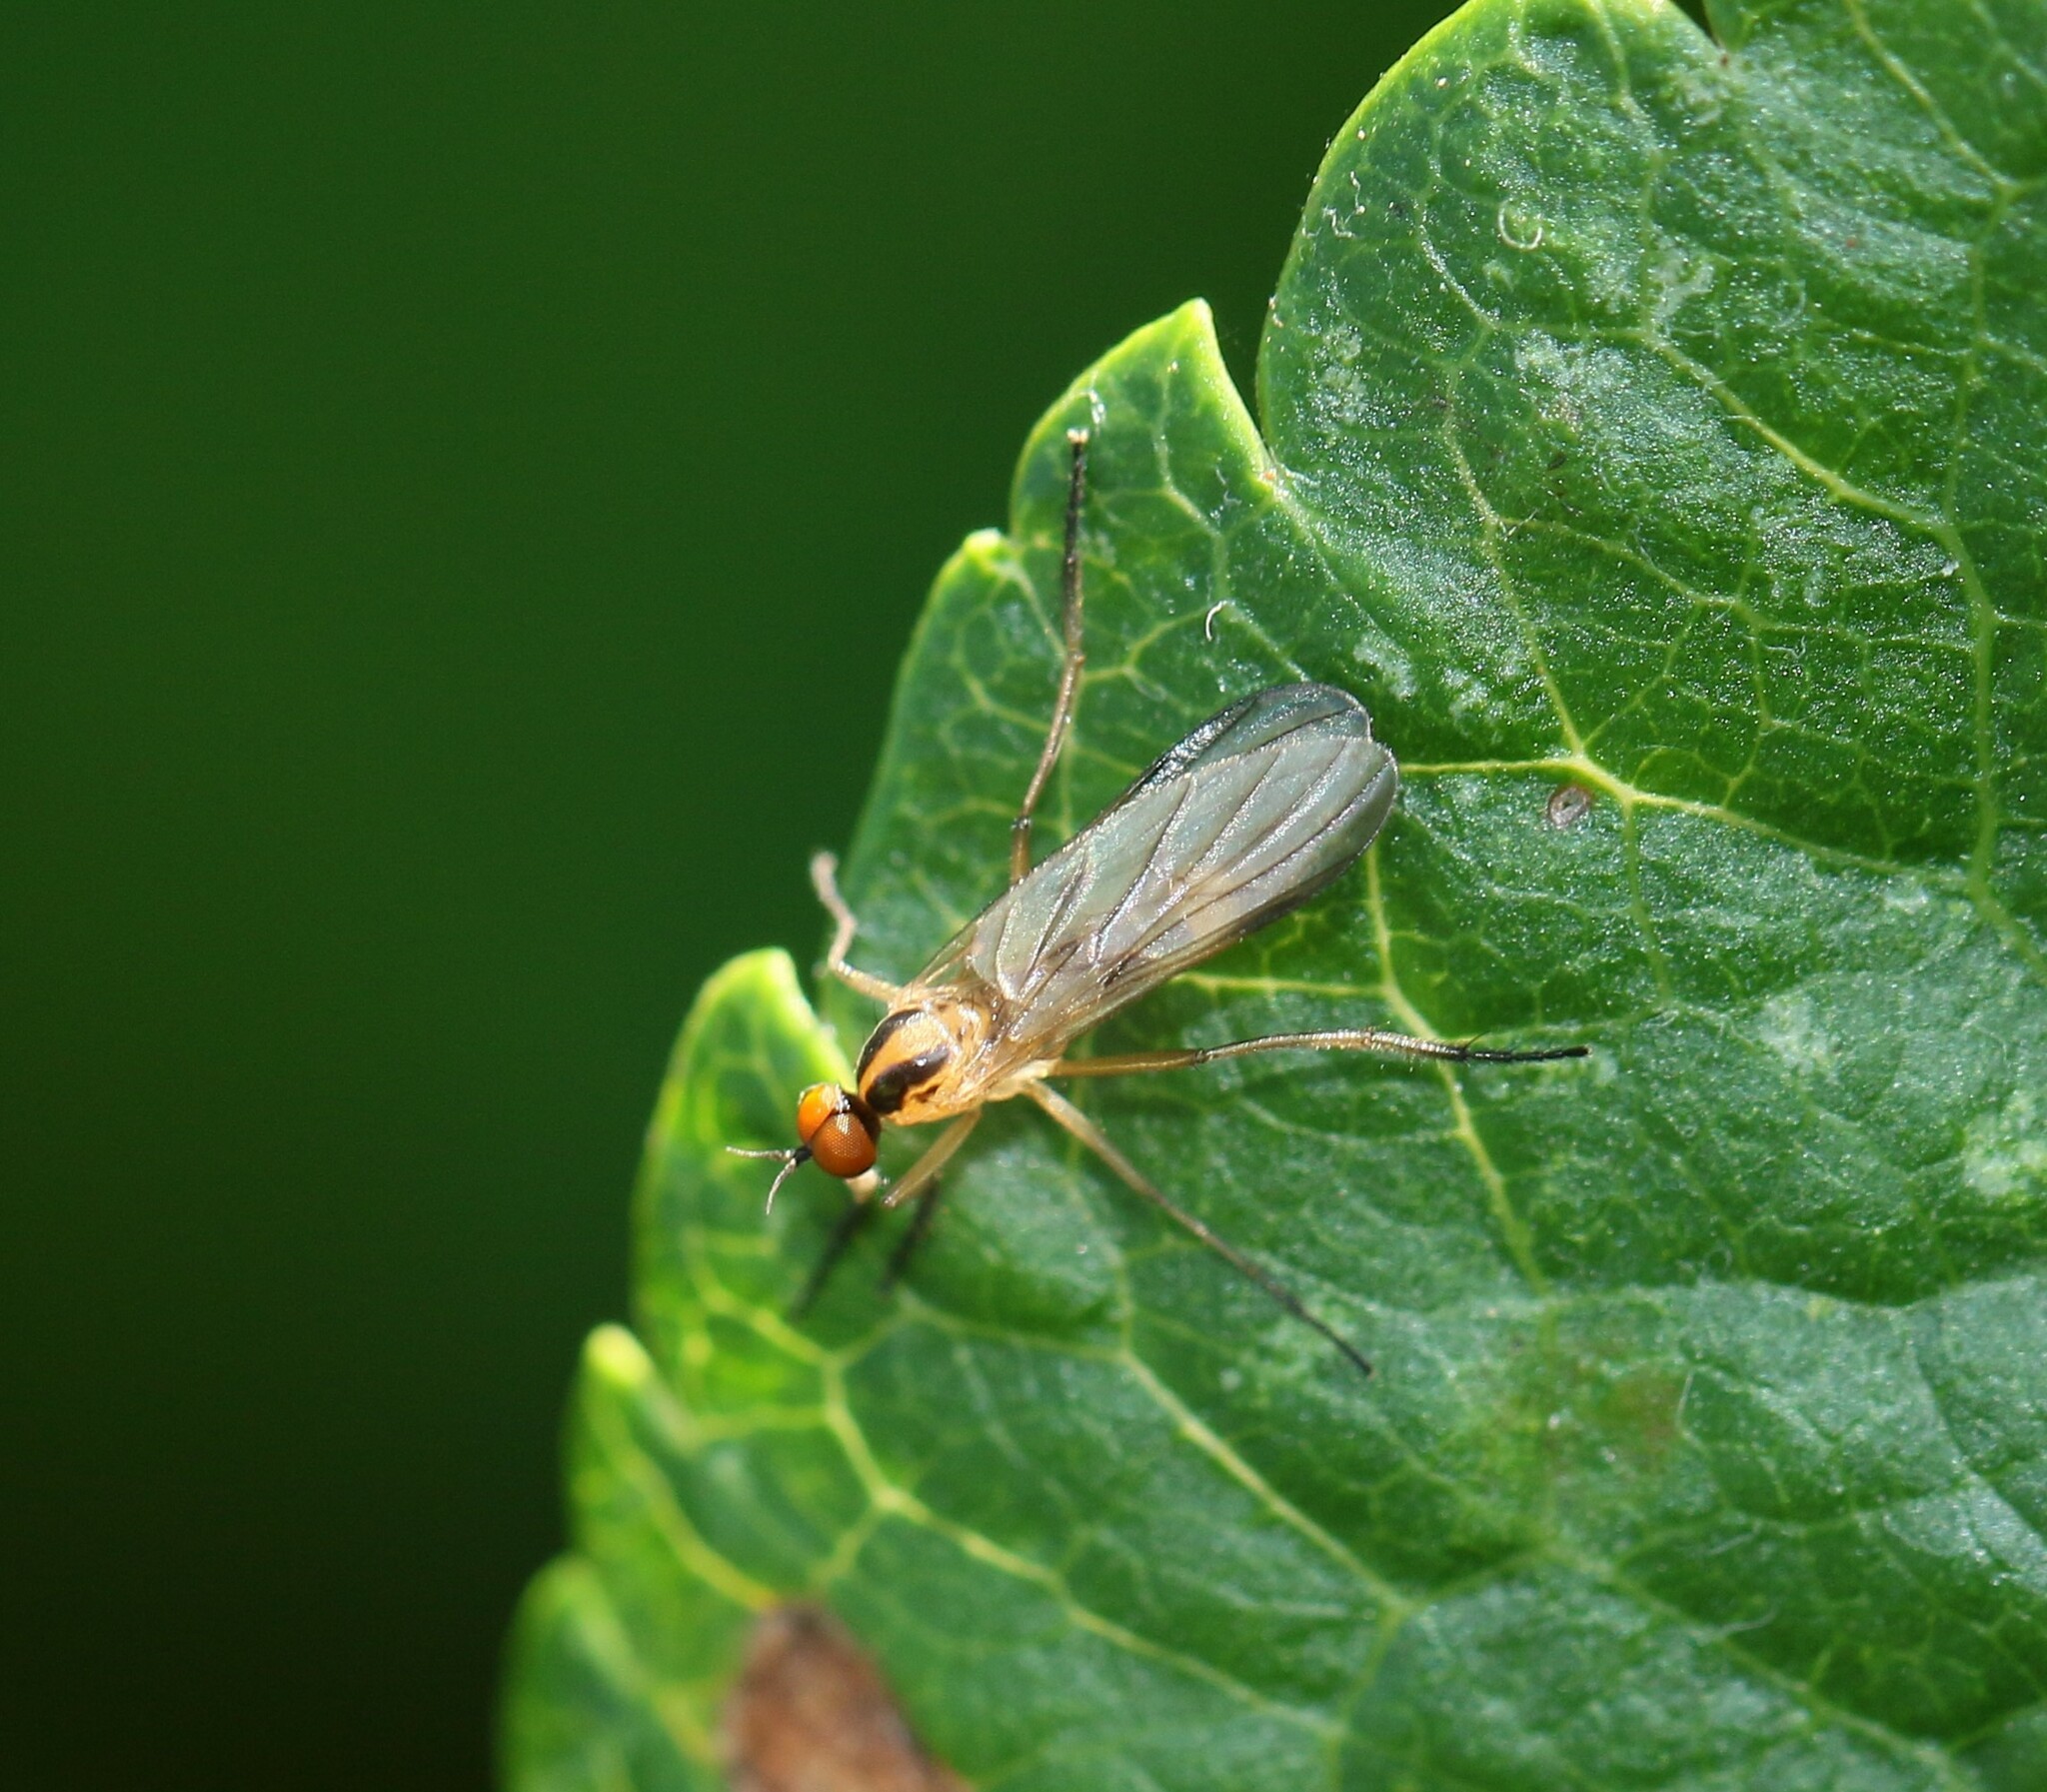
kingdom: Animalia
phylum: Arthropoda
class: Insecta
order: Diptera
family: Empididae
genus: Rhamphomyia
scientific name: Rhamphomyia vittata
